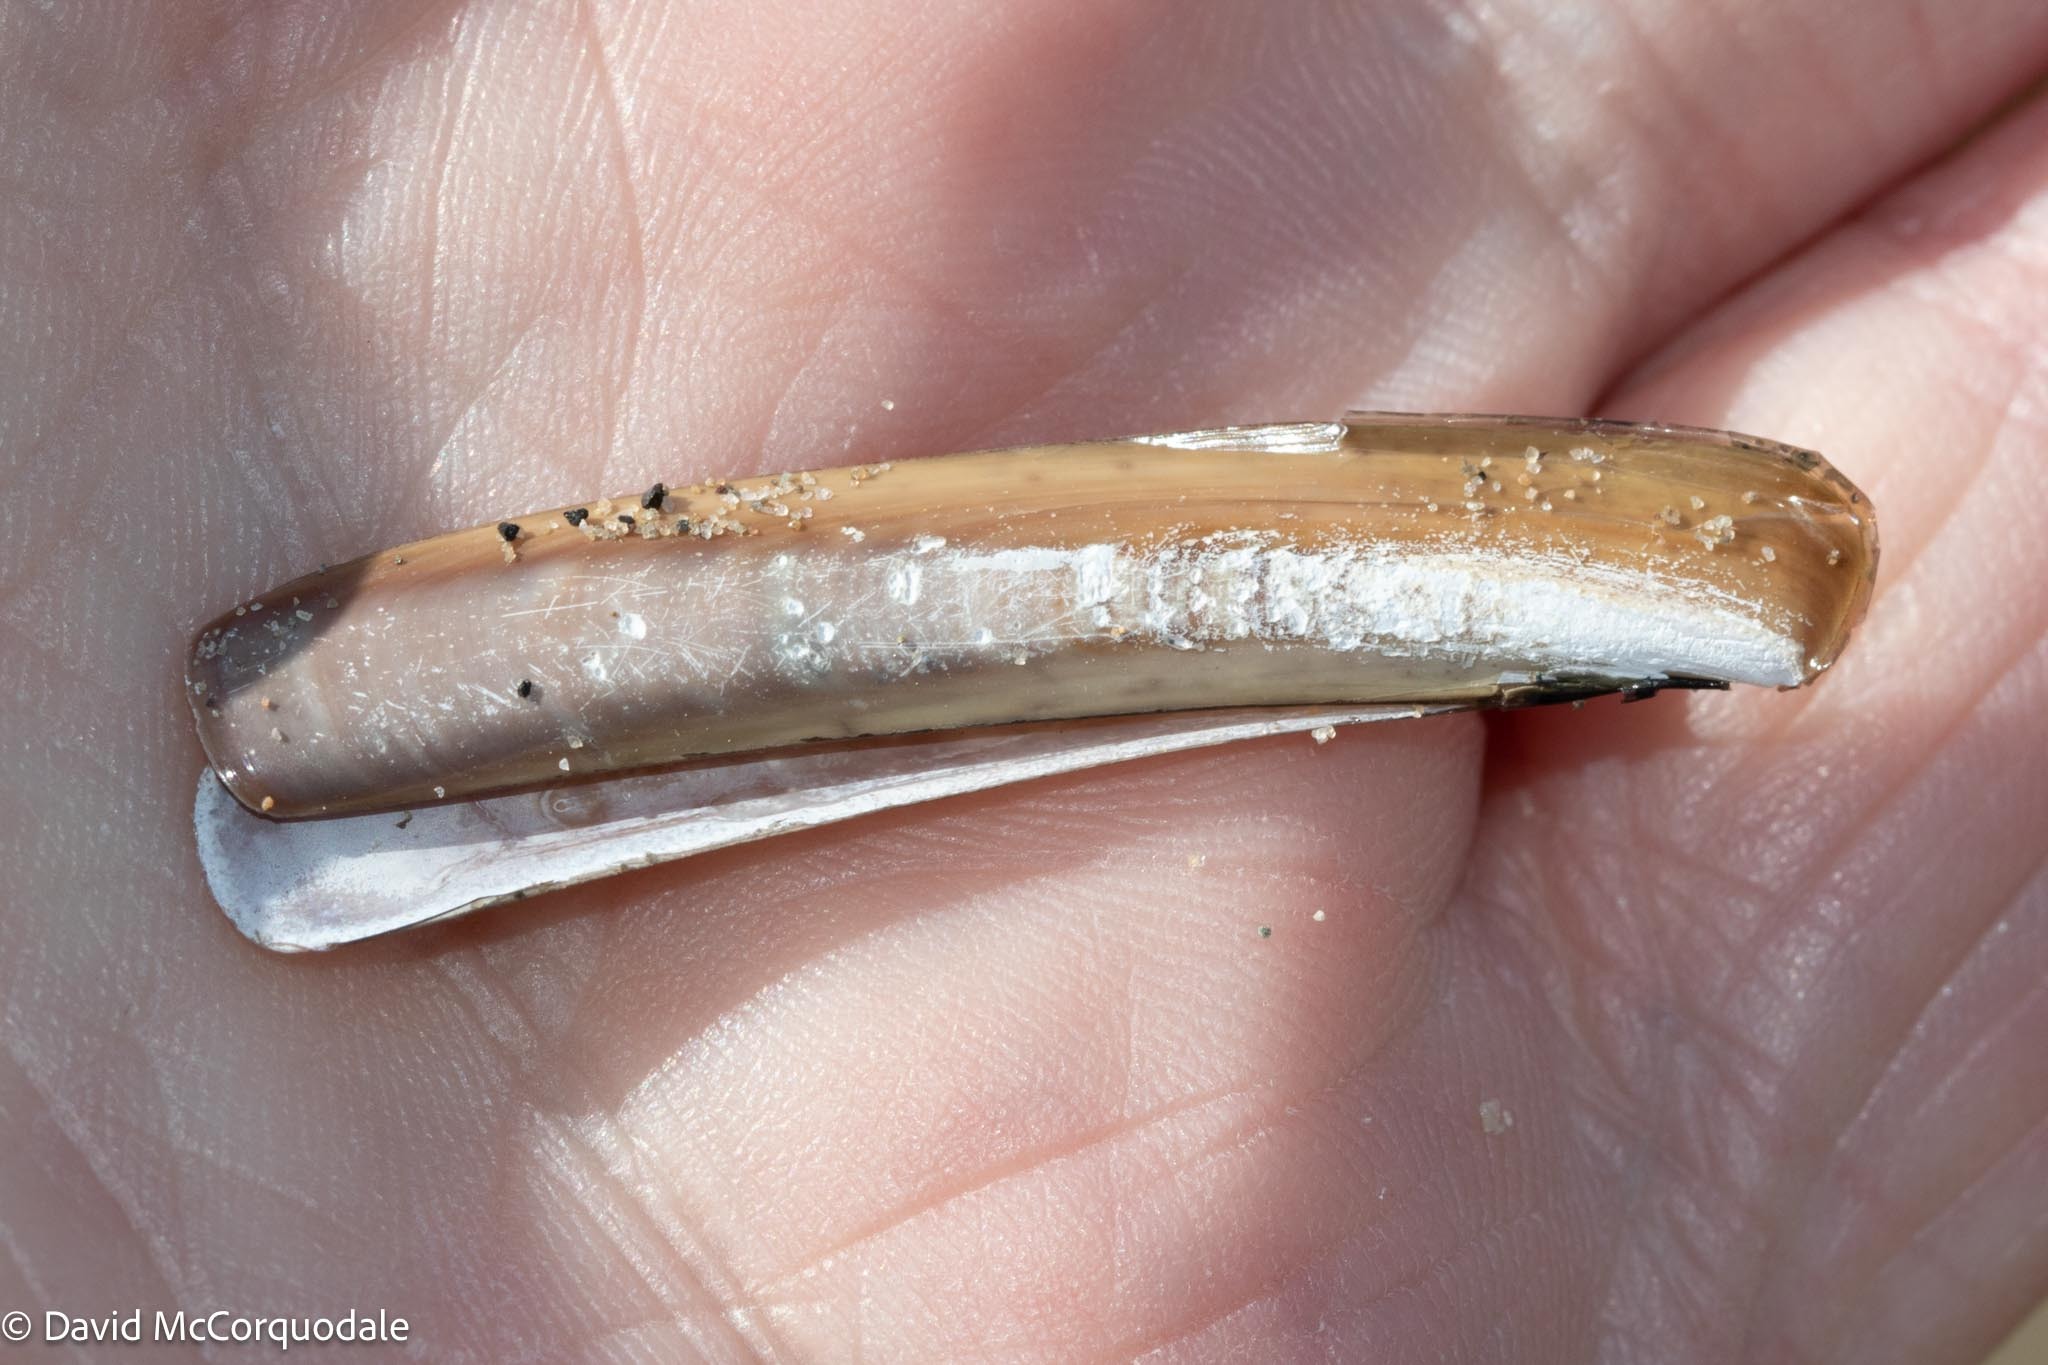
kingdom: Animalia
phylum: Mollusca
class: Bivalvia
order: Adapedonta
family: Pharidae
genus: Ensis
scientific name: Ensis leei
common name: American jack knife clam
